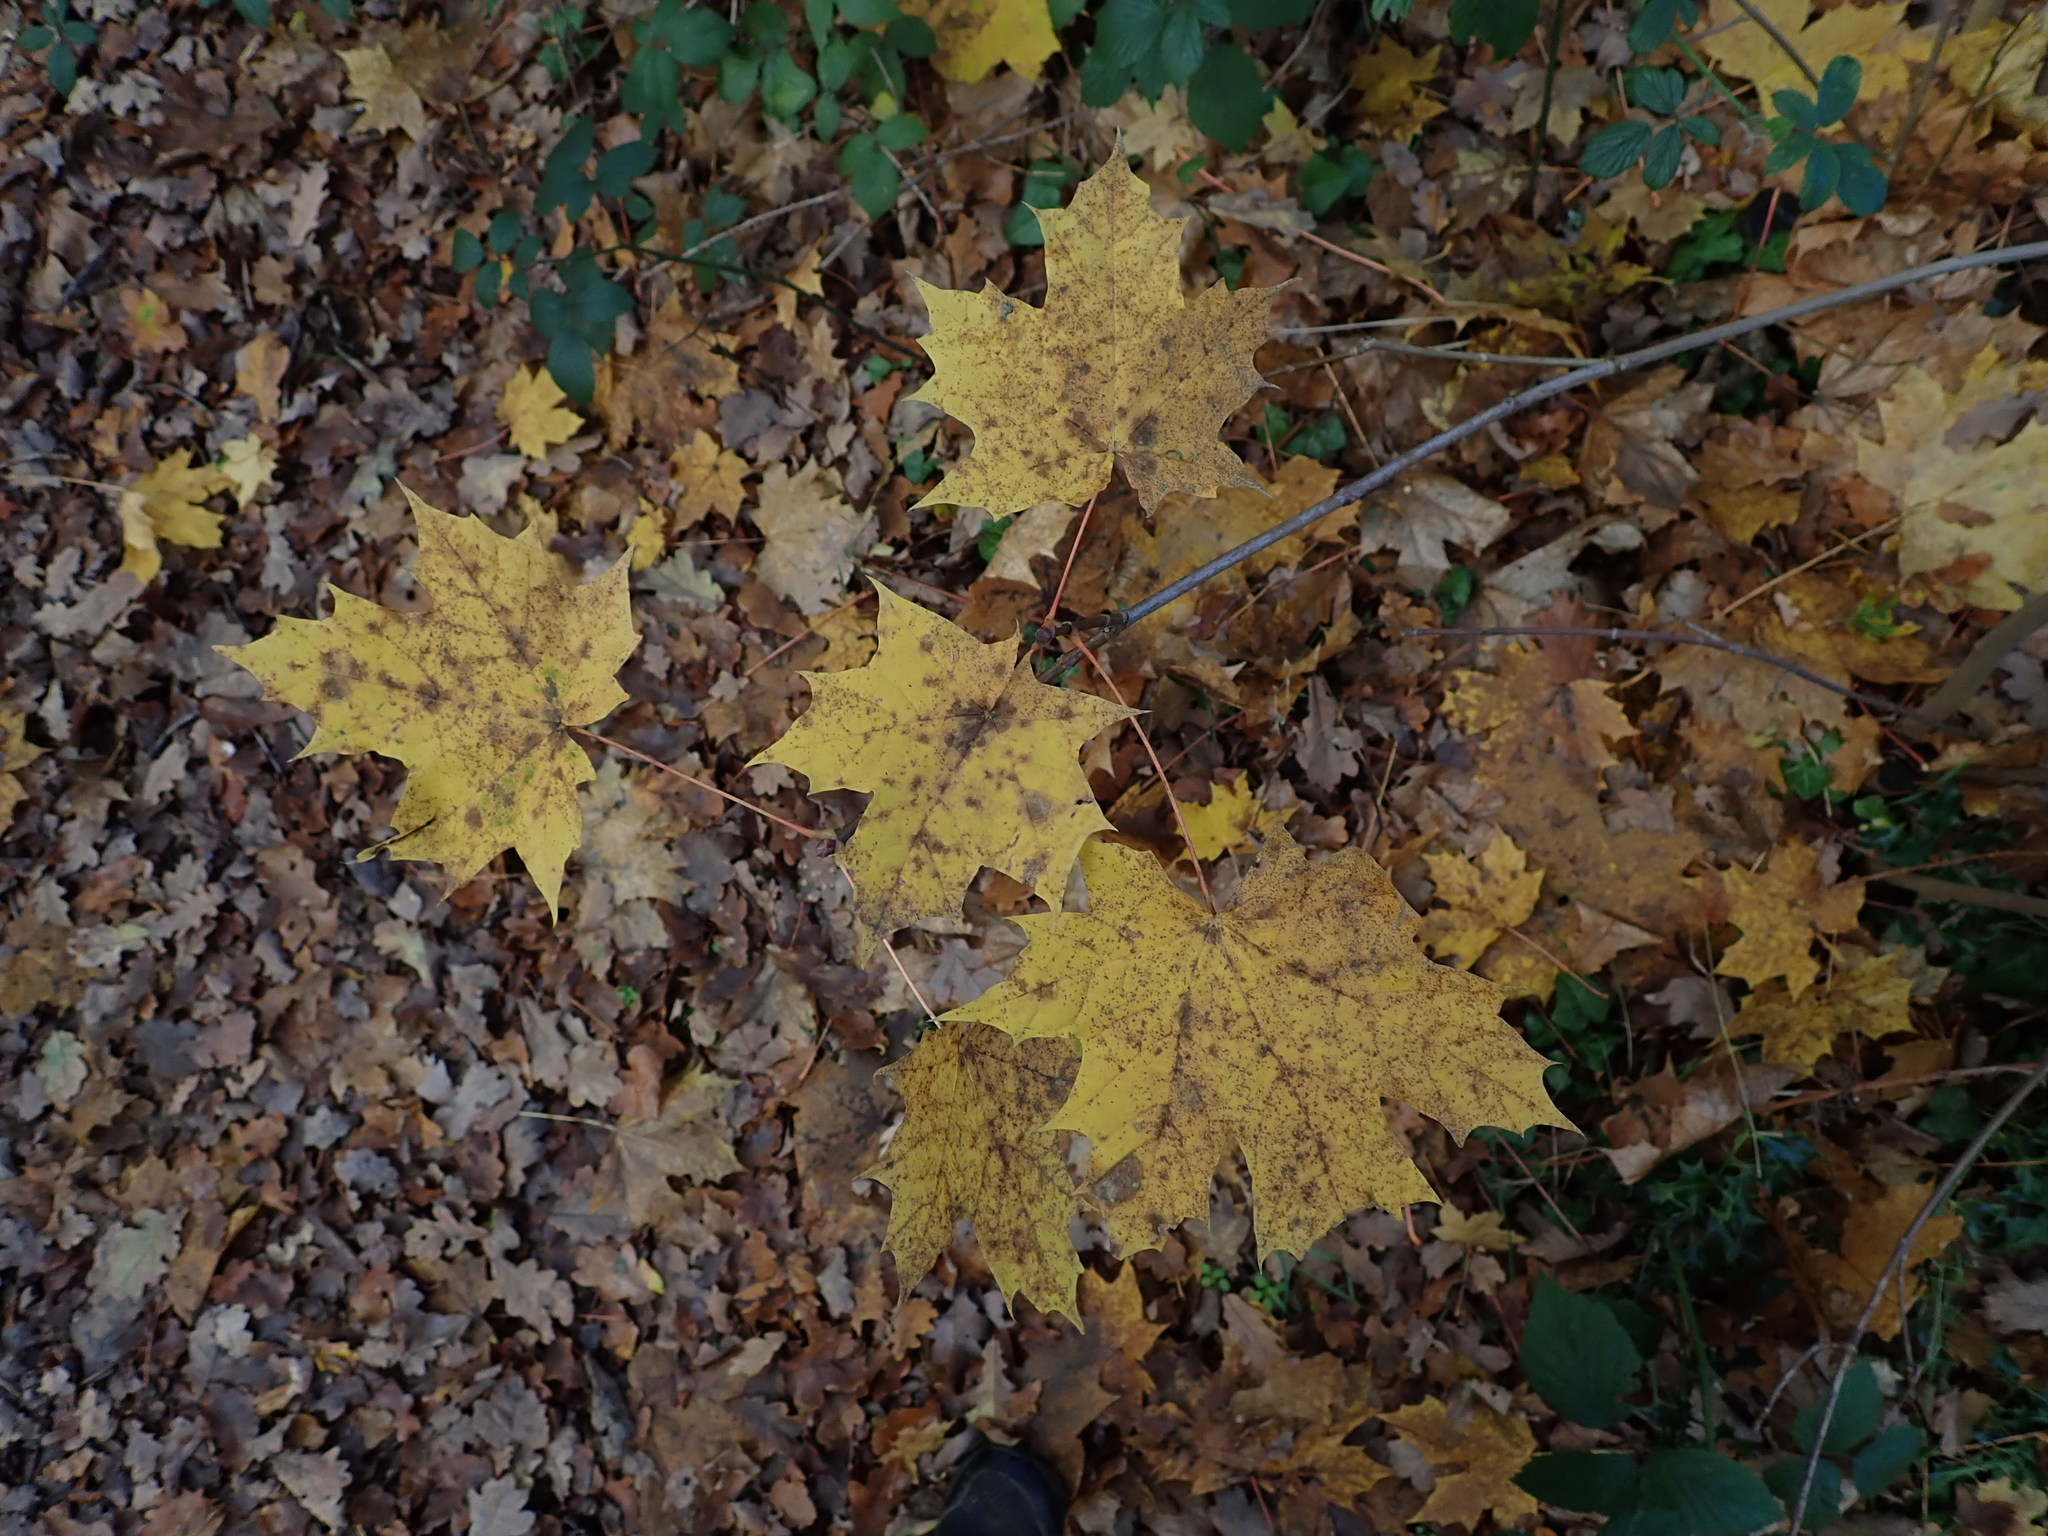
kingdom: Plantae
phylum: Tracheophyta
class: Magnoliopsida
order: Sapindales
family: Sapindaceae
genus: Acer
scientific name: Acer platanoides
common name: Norway maple
